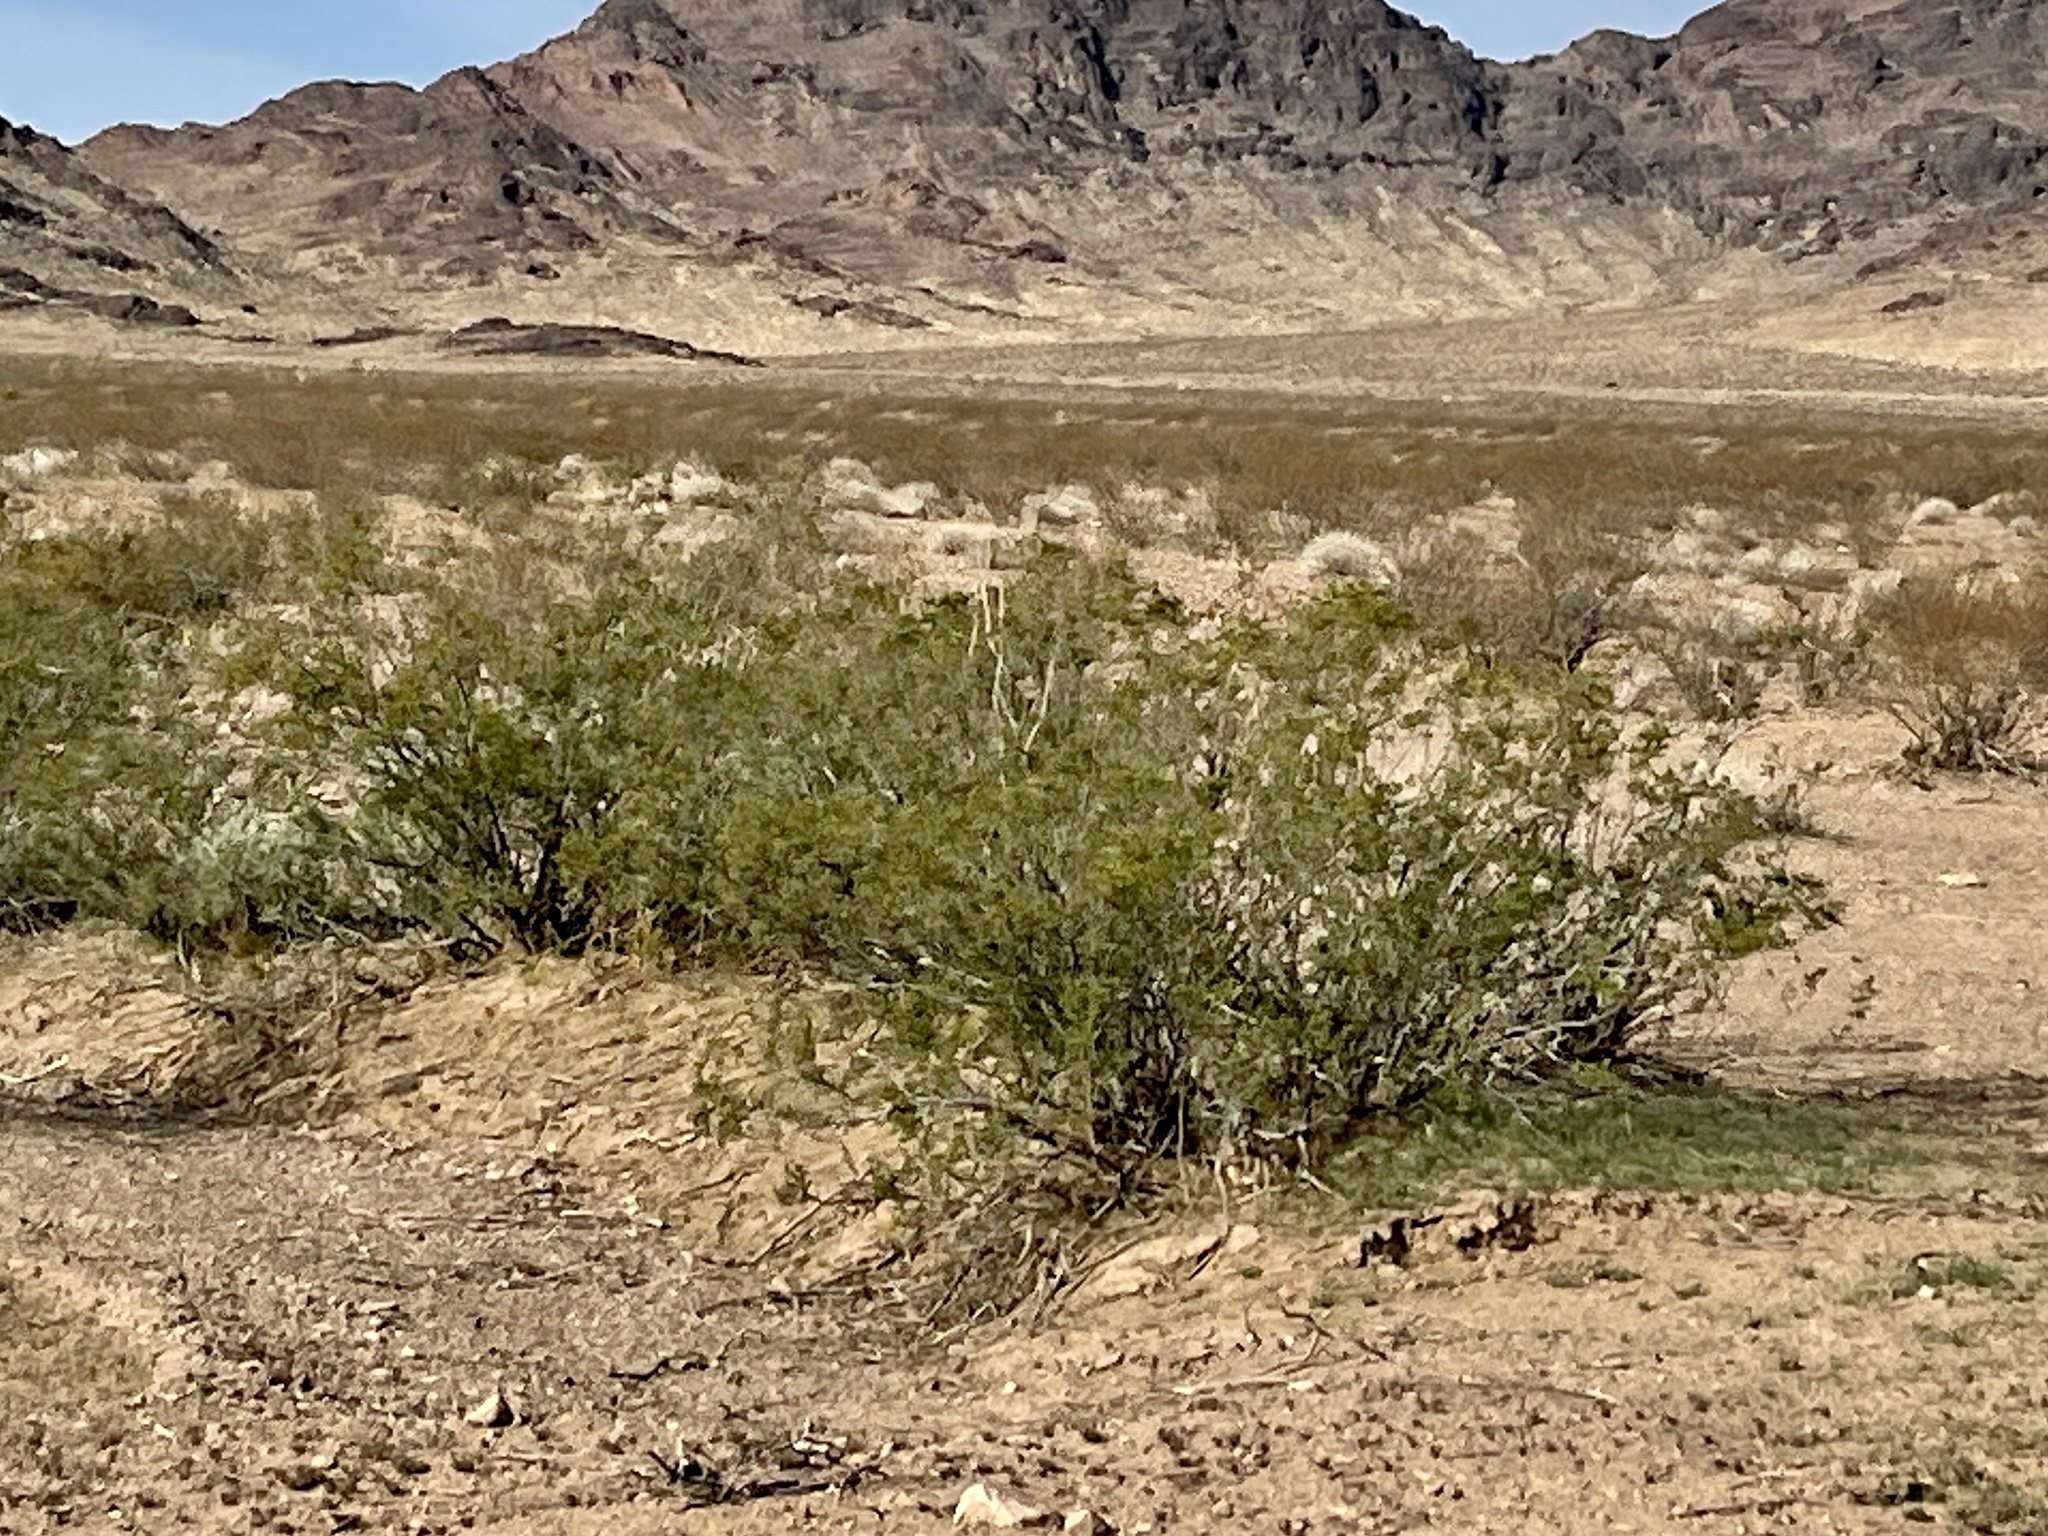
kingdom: Plantae
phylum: Tracheophyta
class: Magnoliopsida
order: Zygophyllales
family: Zygophyllaceae
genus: Larrea
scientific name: Larrea tridentata
